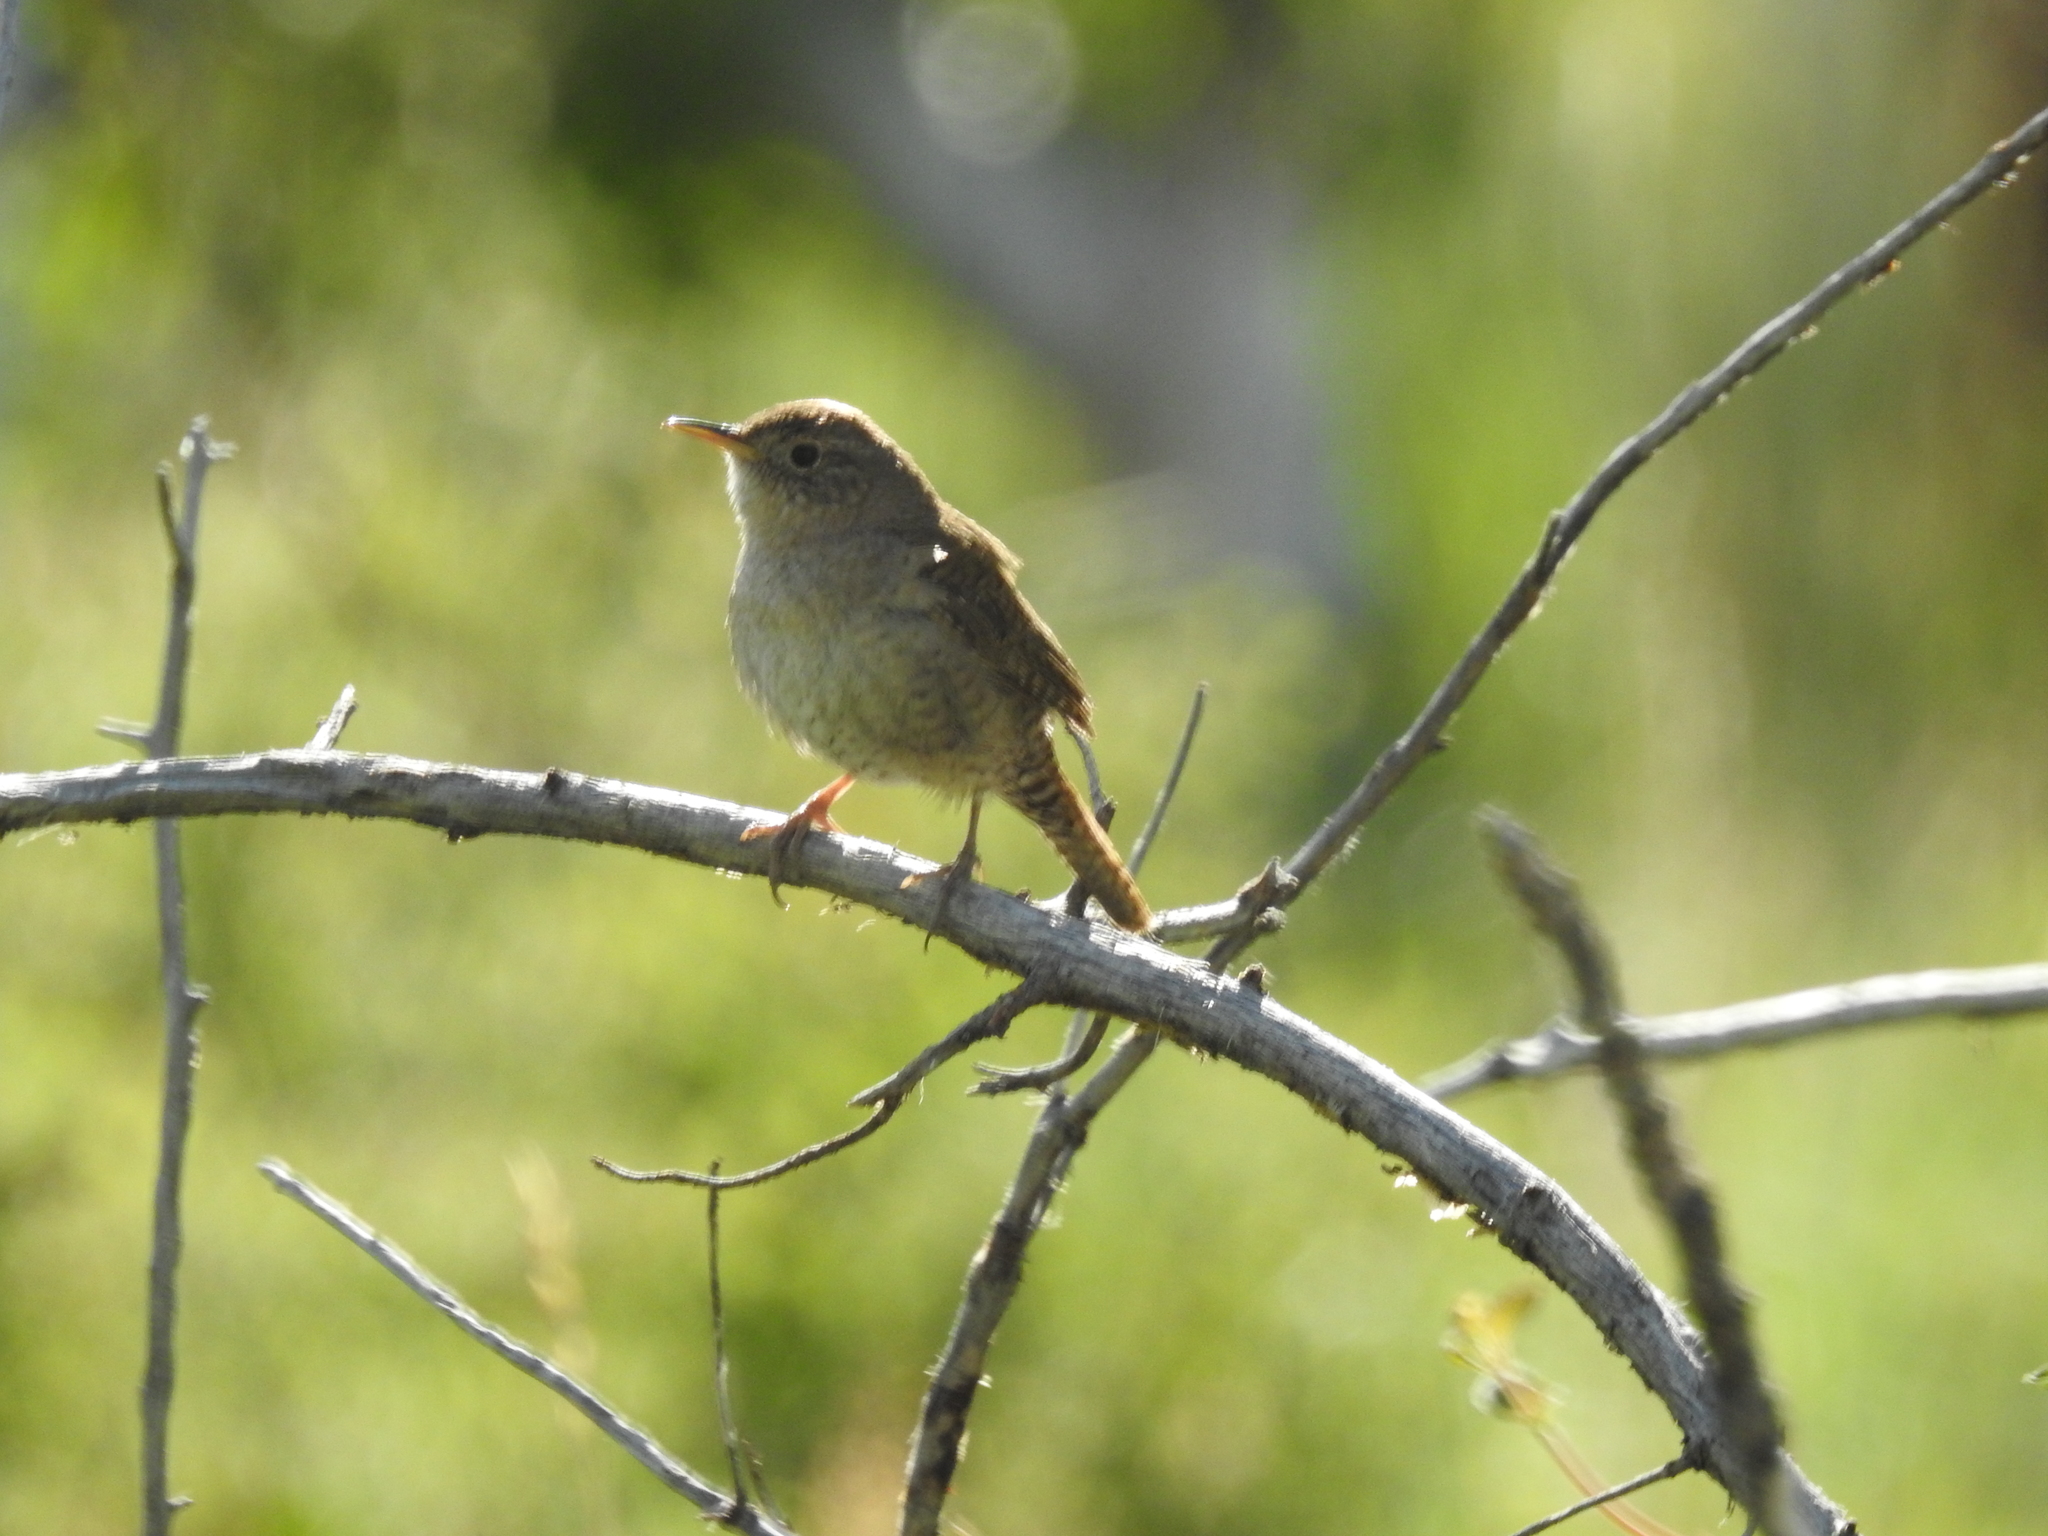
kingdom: Animalia
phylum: Chordata
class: Aves
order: Passeriformes
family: Troglodytidae
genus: Troglodytes
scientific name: Troglodytes aedon
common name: House wren
